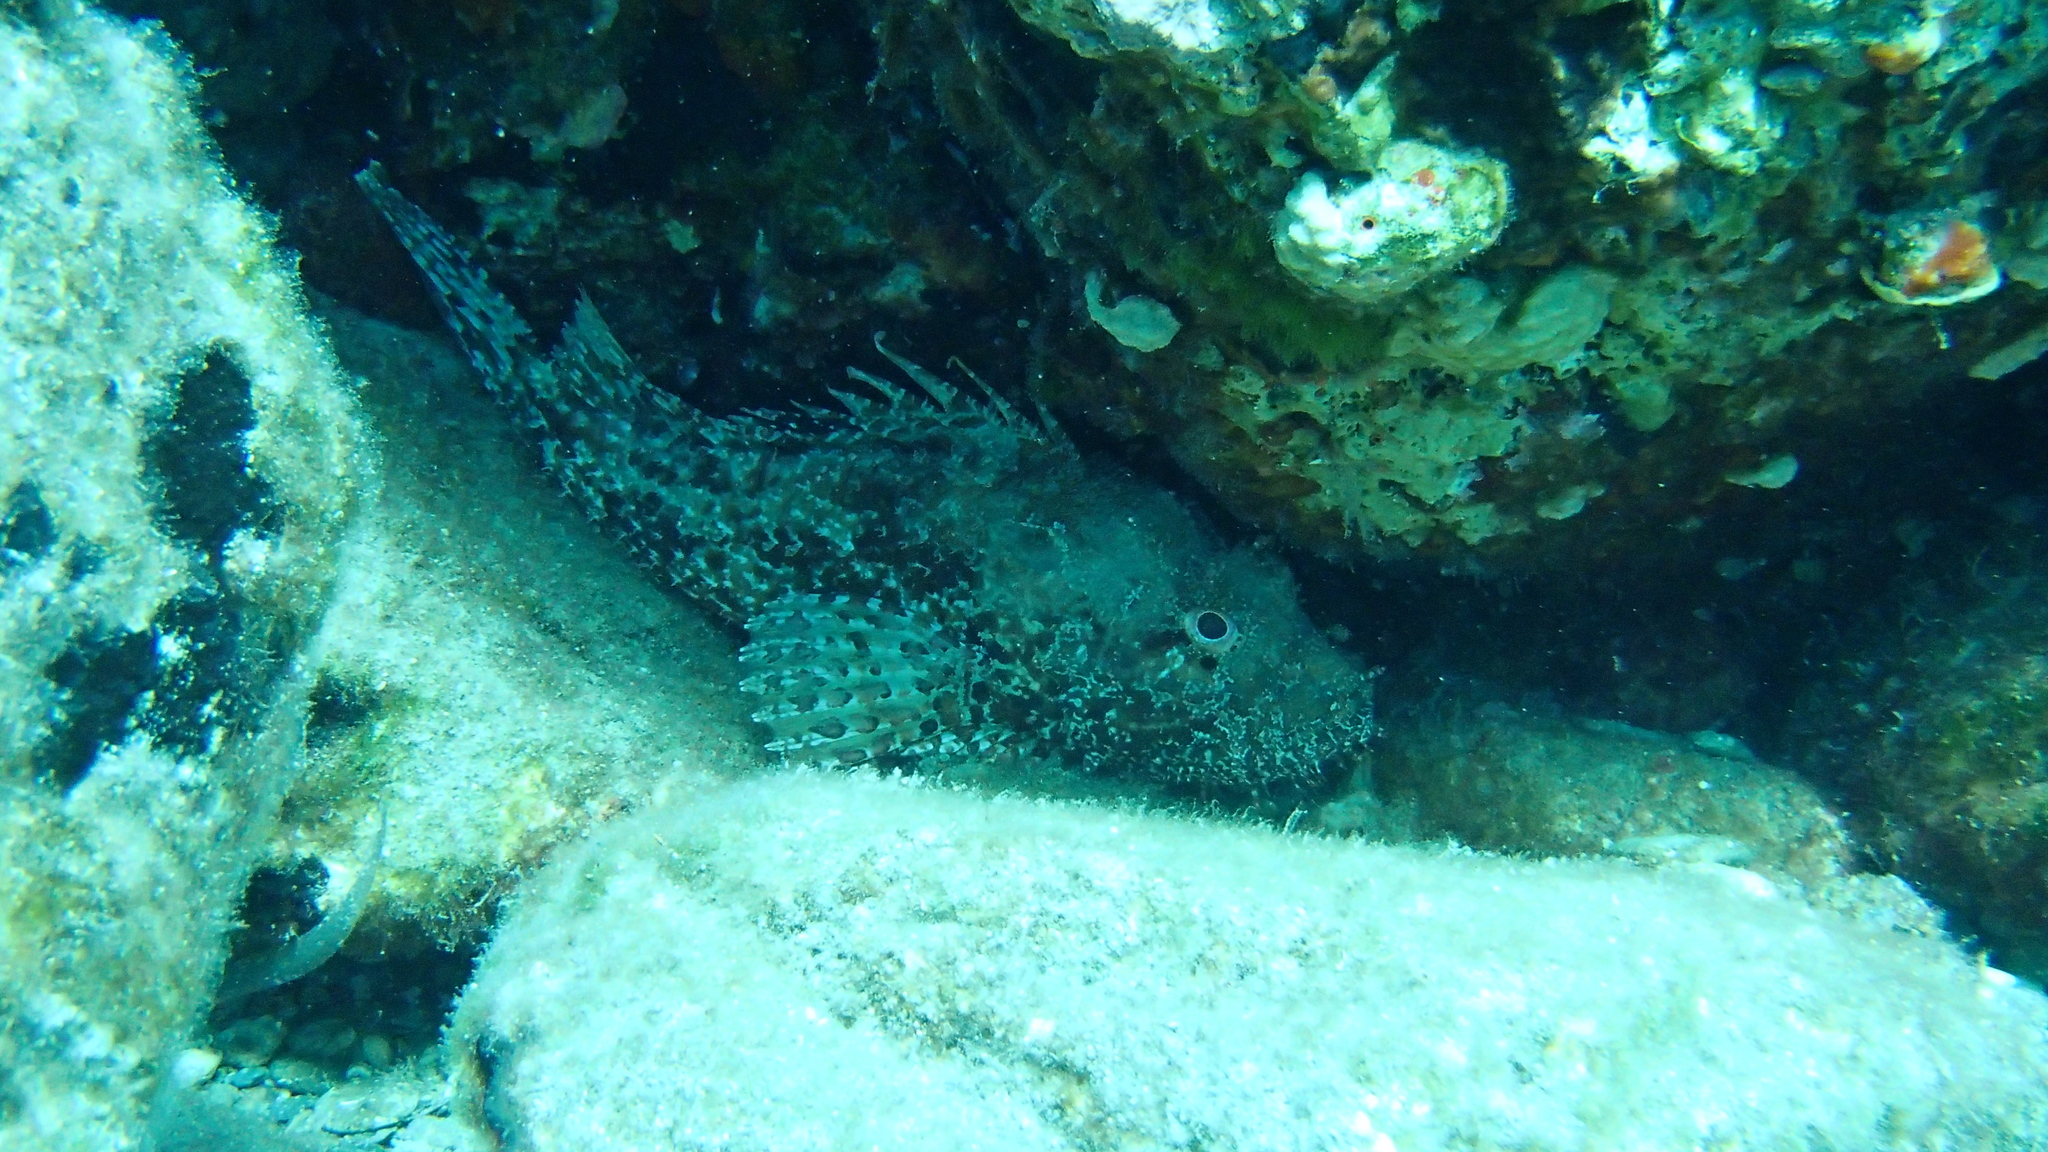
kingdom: Animalia
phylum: Chordata
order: Scorpaeniformes
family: Scorpaenidae
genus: Scorpaena
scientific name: Scorpaena scrofa
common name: Red scorpionfish
